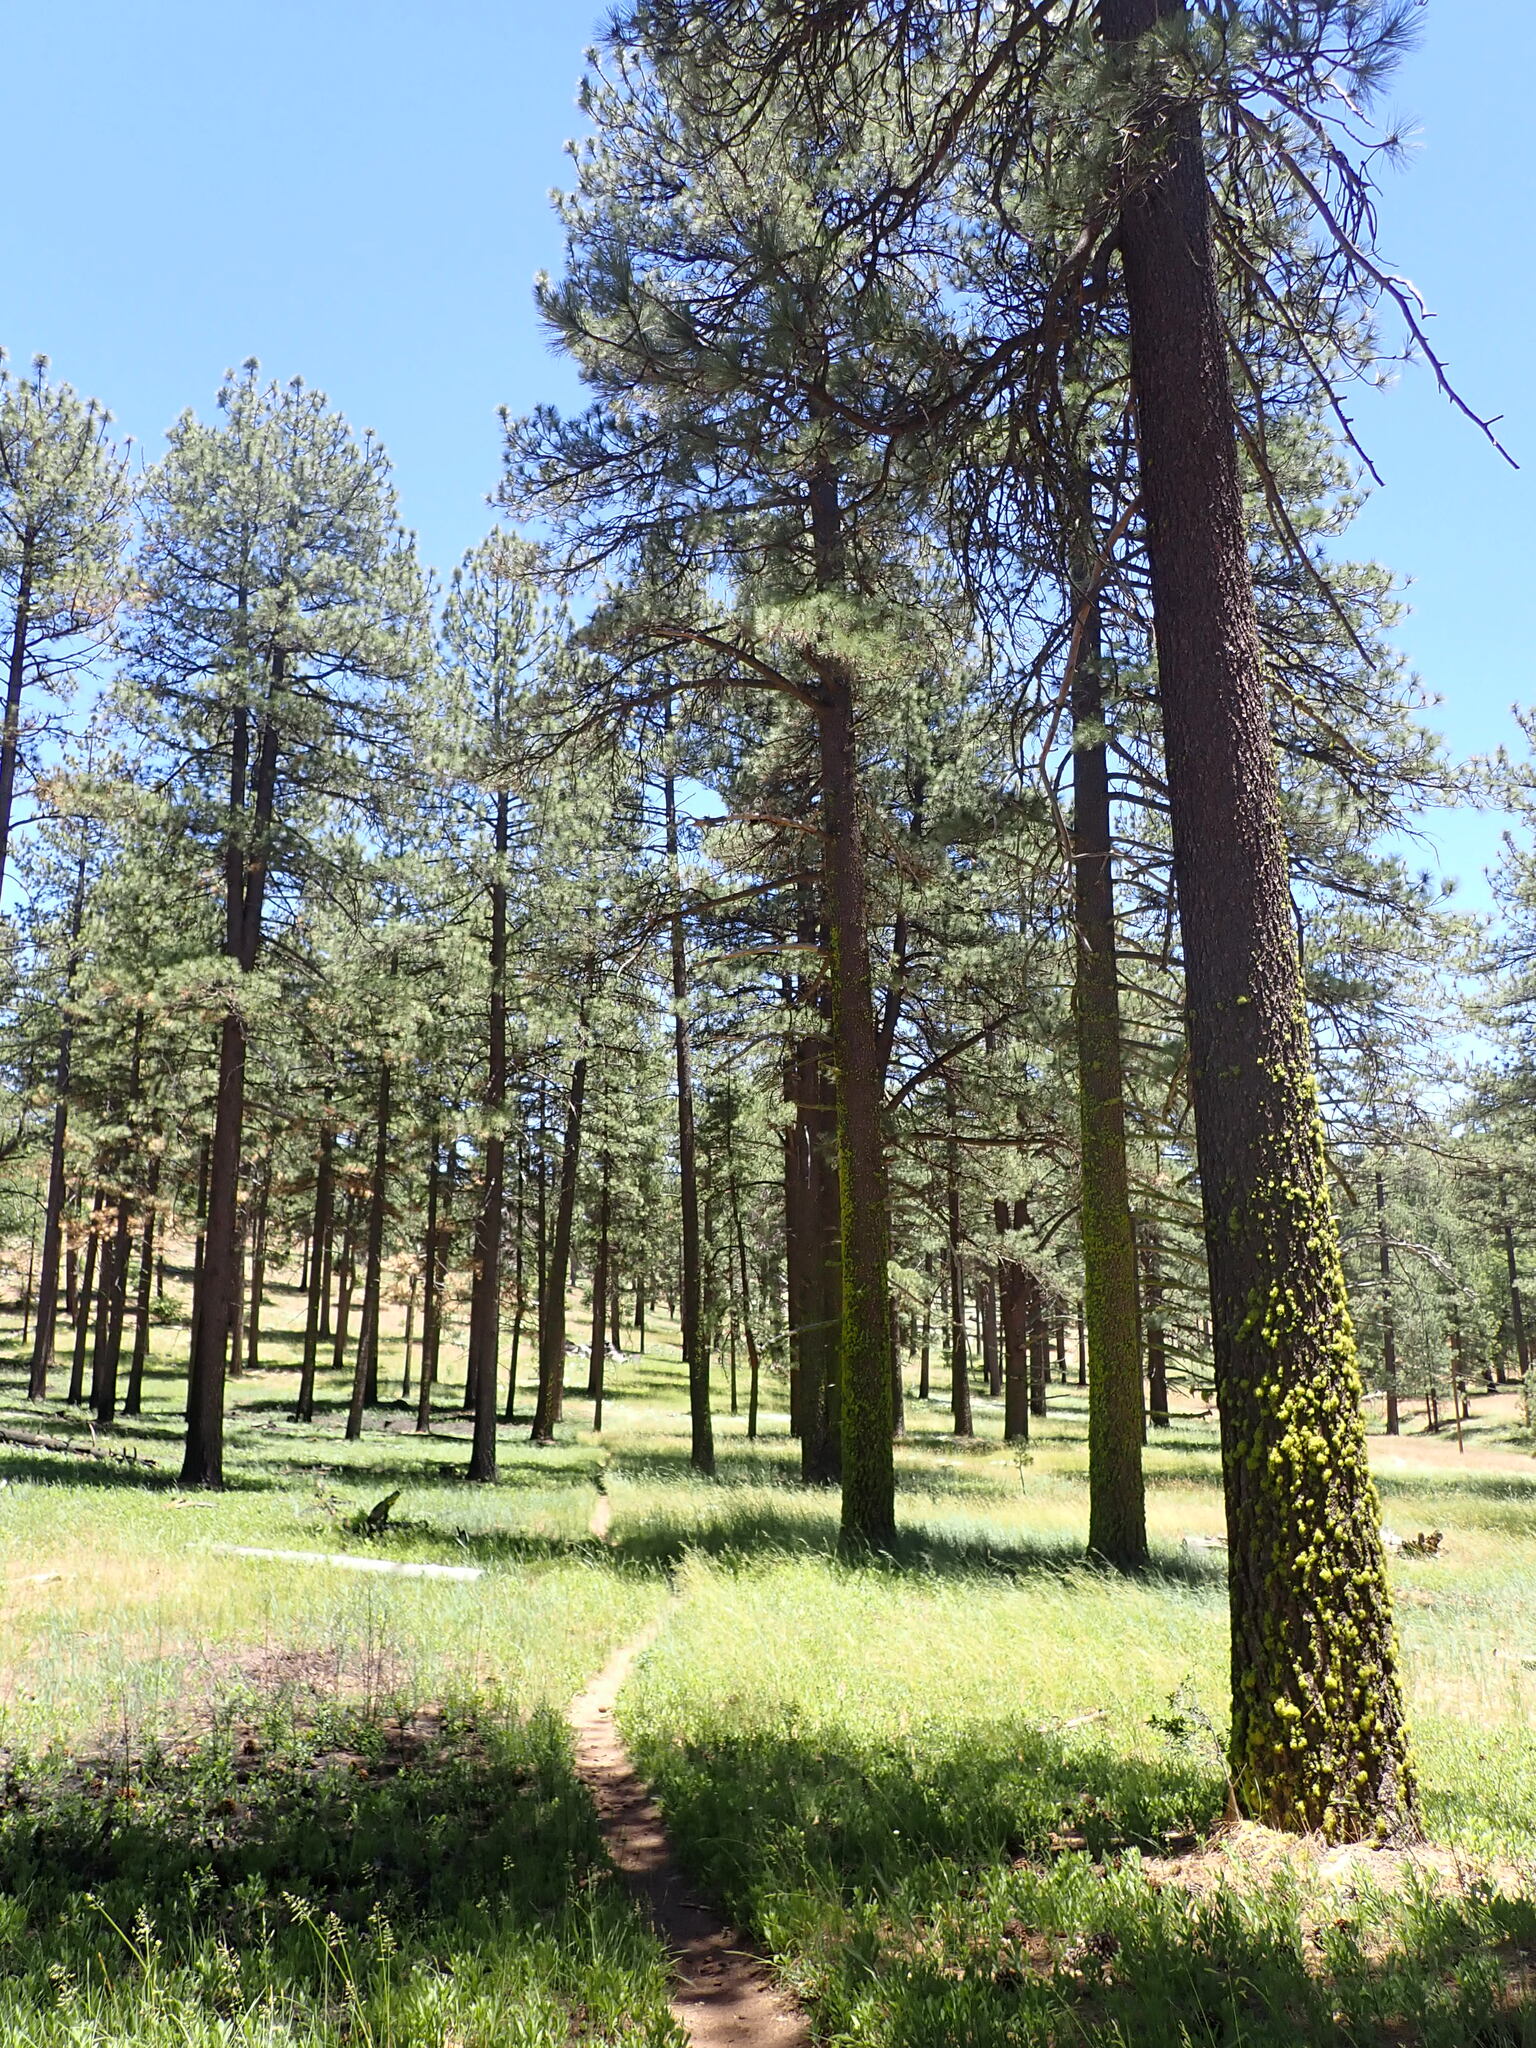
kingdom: Plantae
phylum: Tracheophyta
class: Pinopsida
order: Pinales
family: Pinaceae
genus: Pinus
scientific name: Pinus jeffreyi
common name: Jeffrey pine
